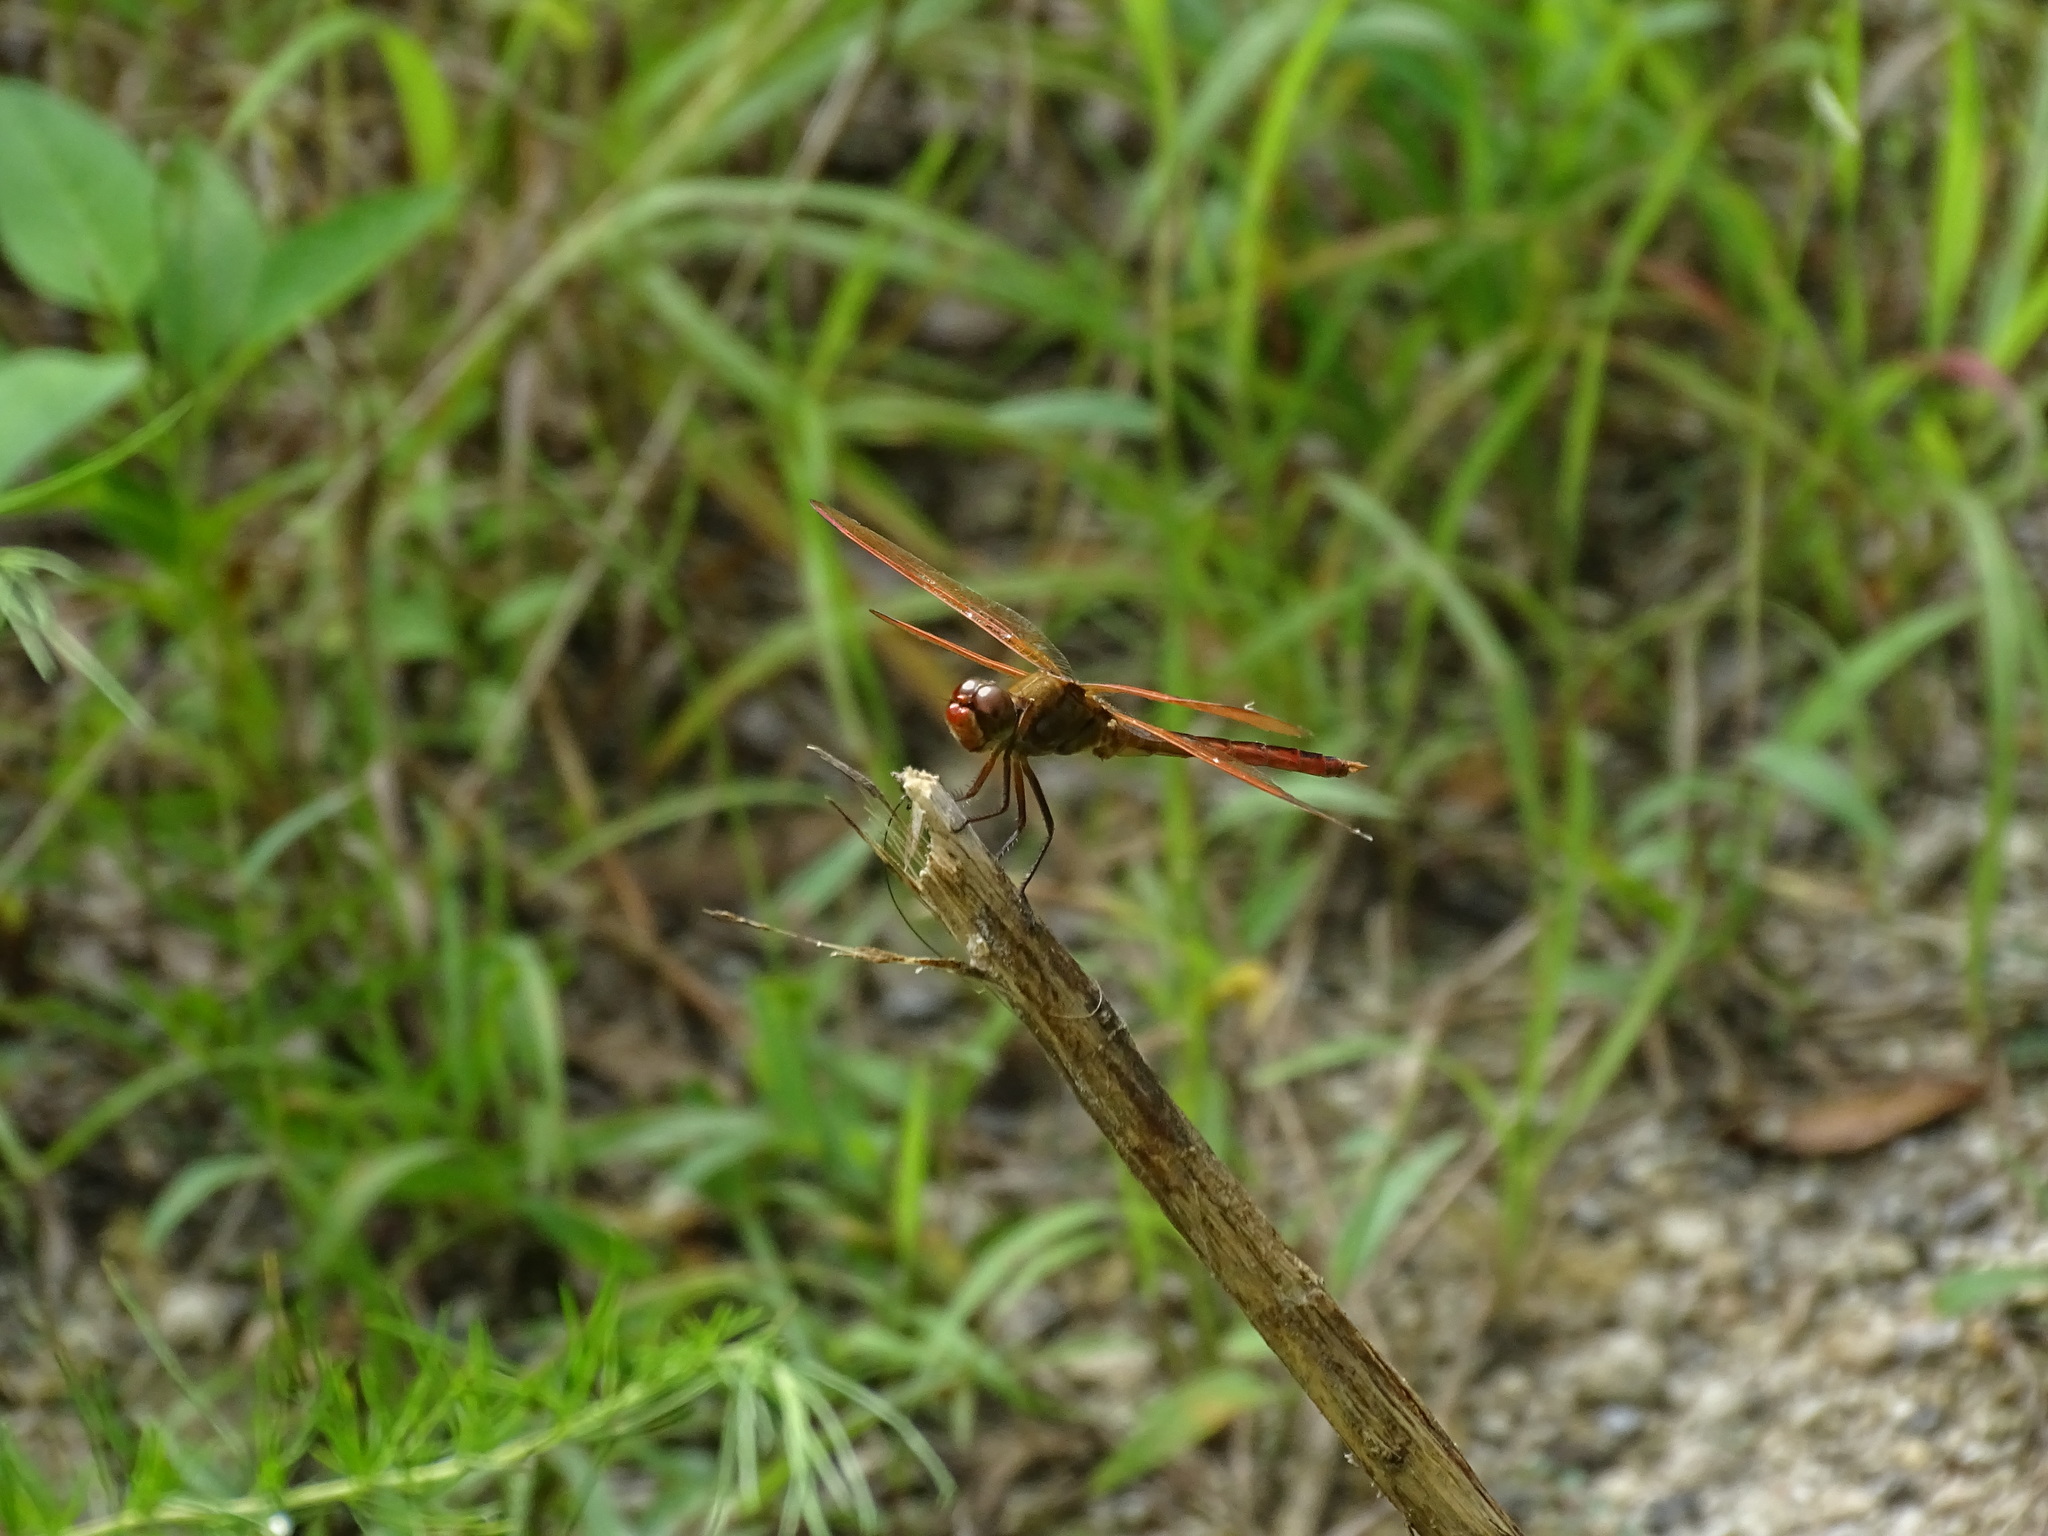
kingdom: Animalia
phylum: Arthropoda
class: Insecta
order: Odonata
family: Libellulidae
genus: Libellula
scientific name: Libellula auripennis
